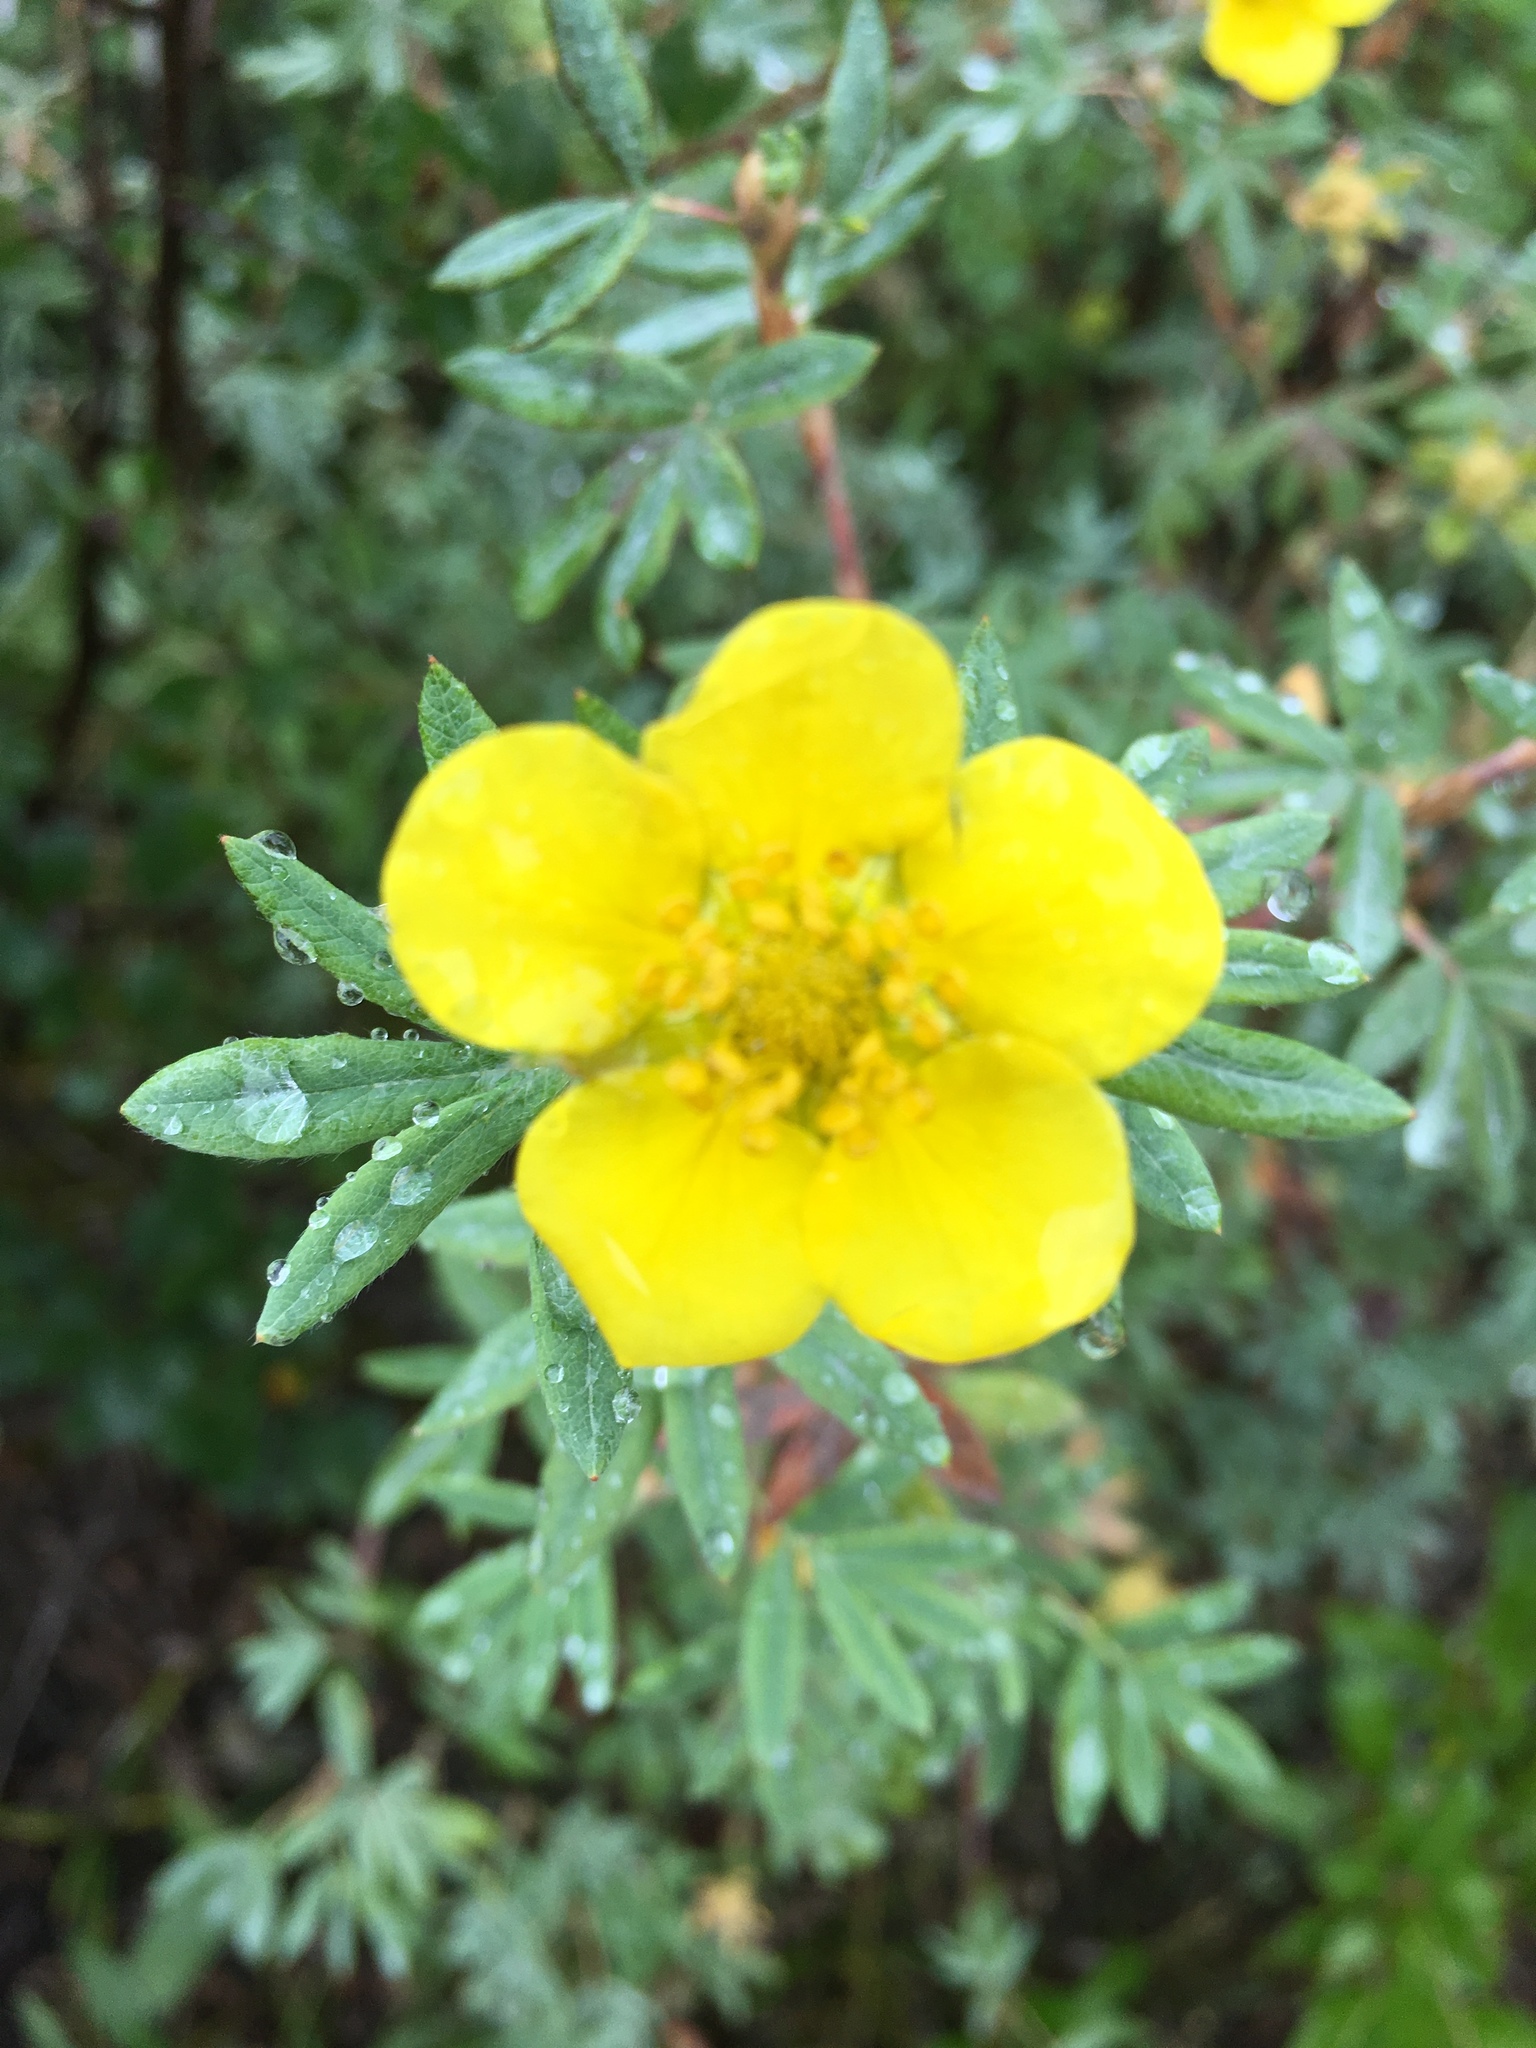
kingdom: Plantae
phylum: Tracheophyta
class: Magnoliopsida
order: Rosales
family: Rosaceae
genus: Dasiphora
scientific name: Dasiphora fruticosa
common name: Shrubby cinquefoil
